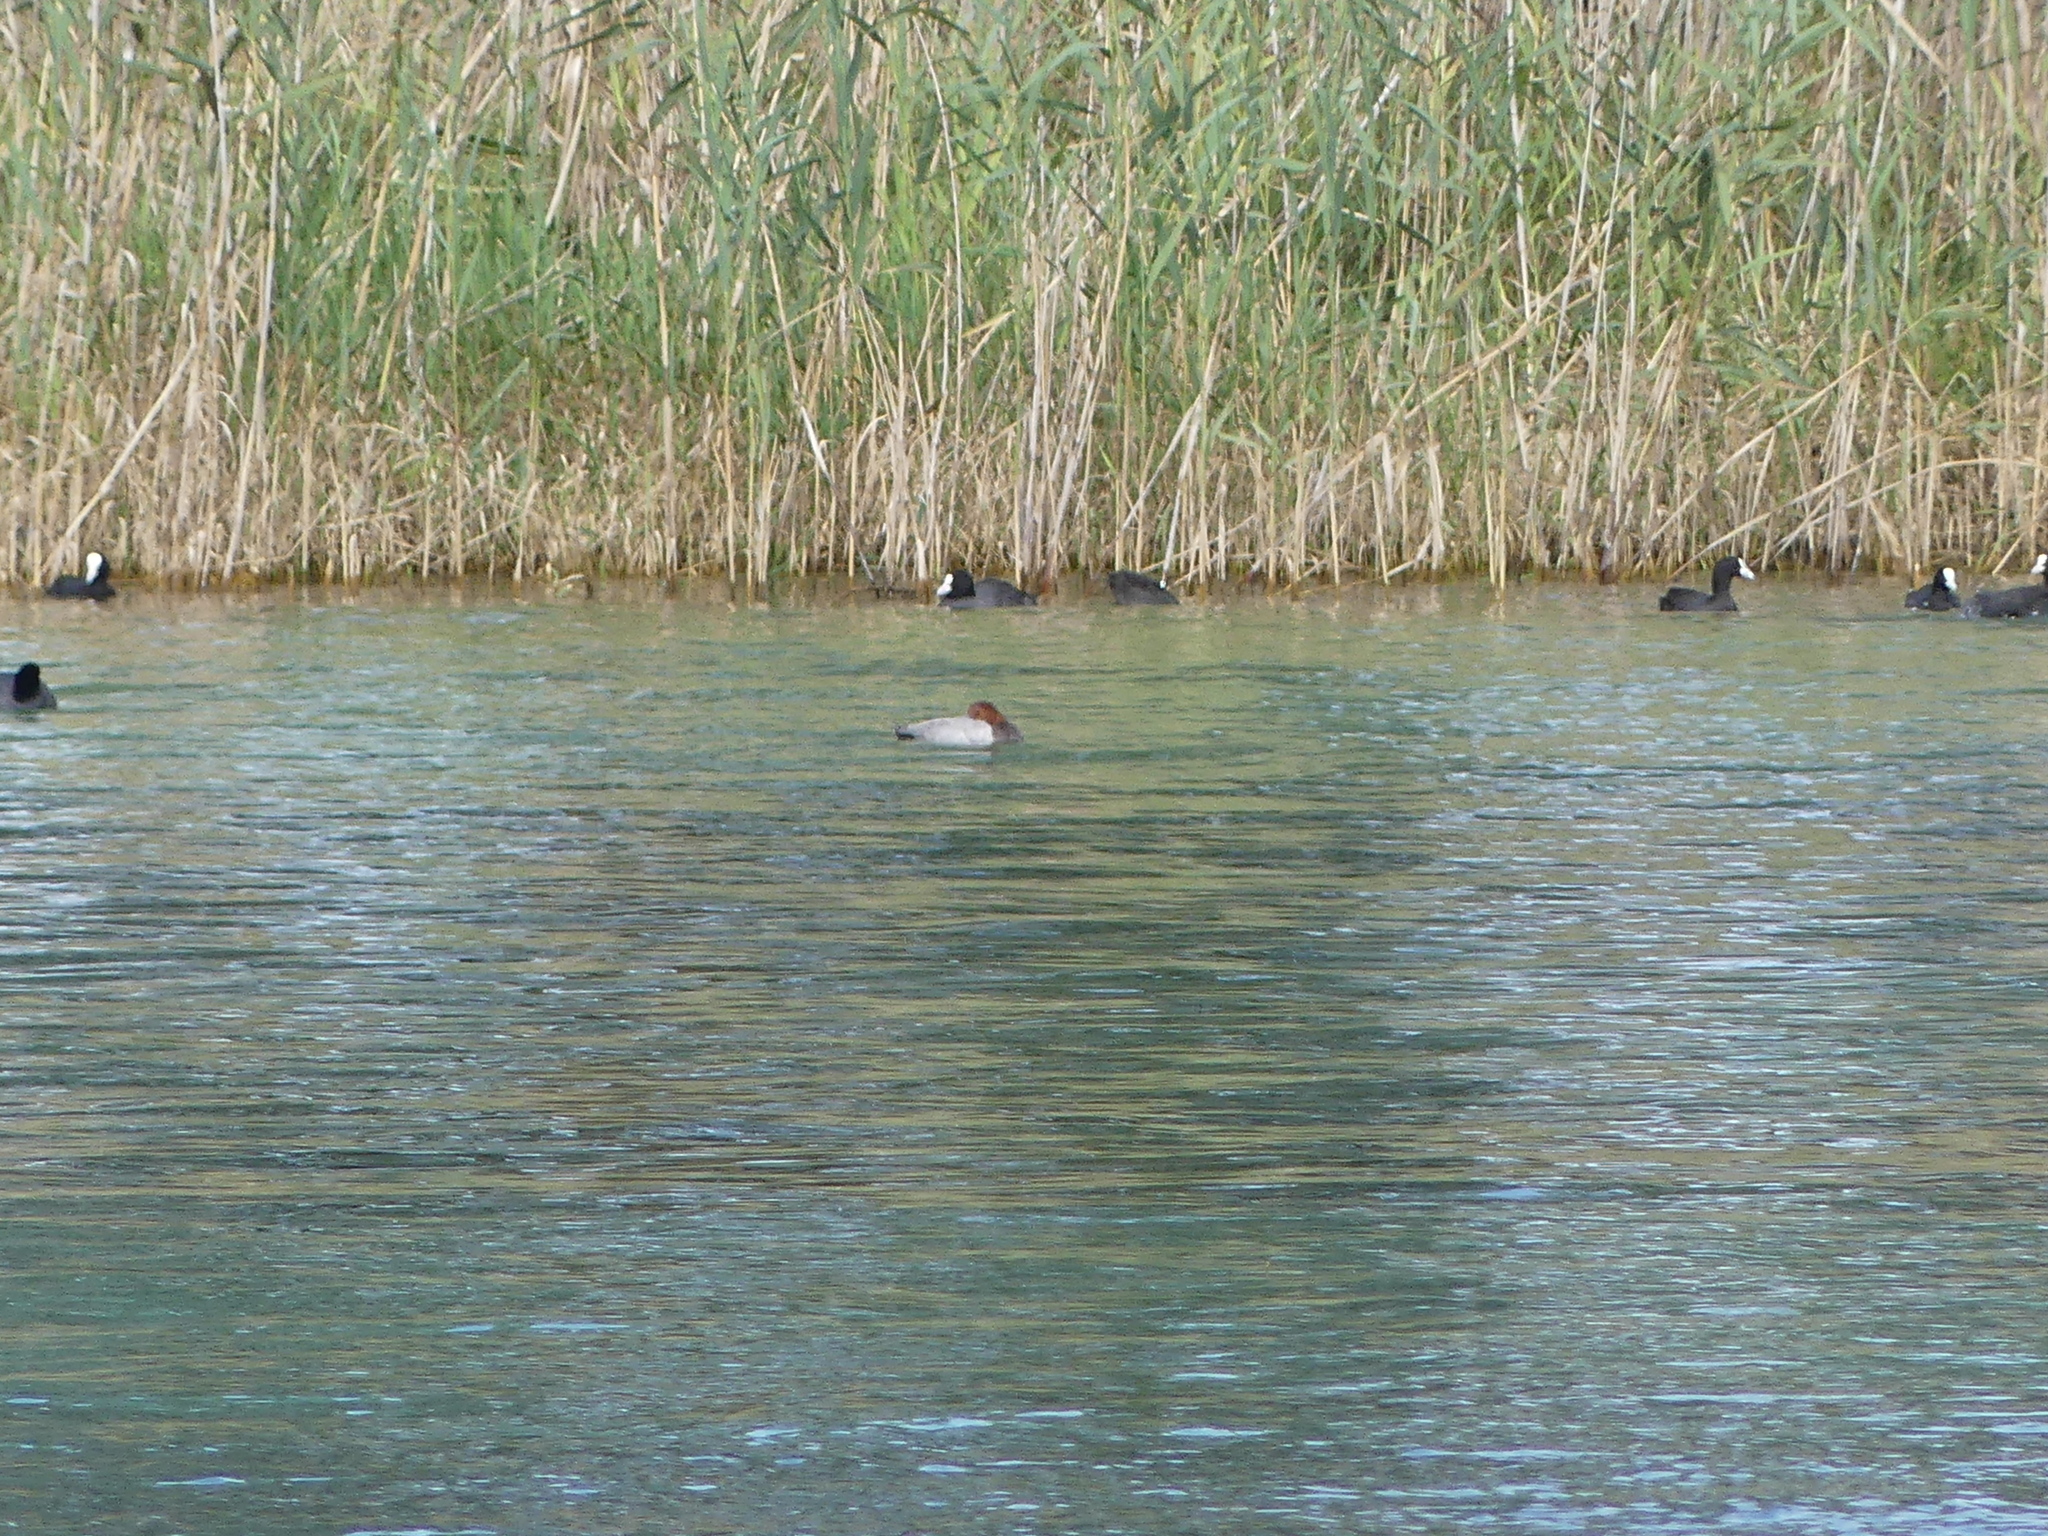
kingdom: Animalia
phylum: Chordata
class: Aves
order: Anseriformes
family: Anatidae
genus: Aythya
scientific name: Aythya ferina
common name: Common pochard
